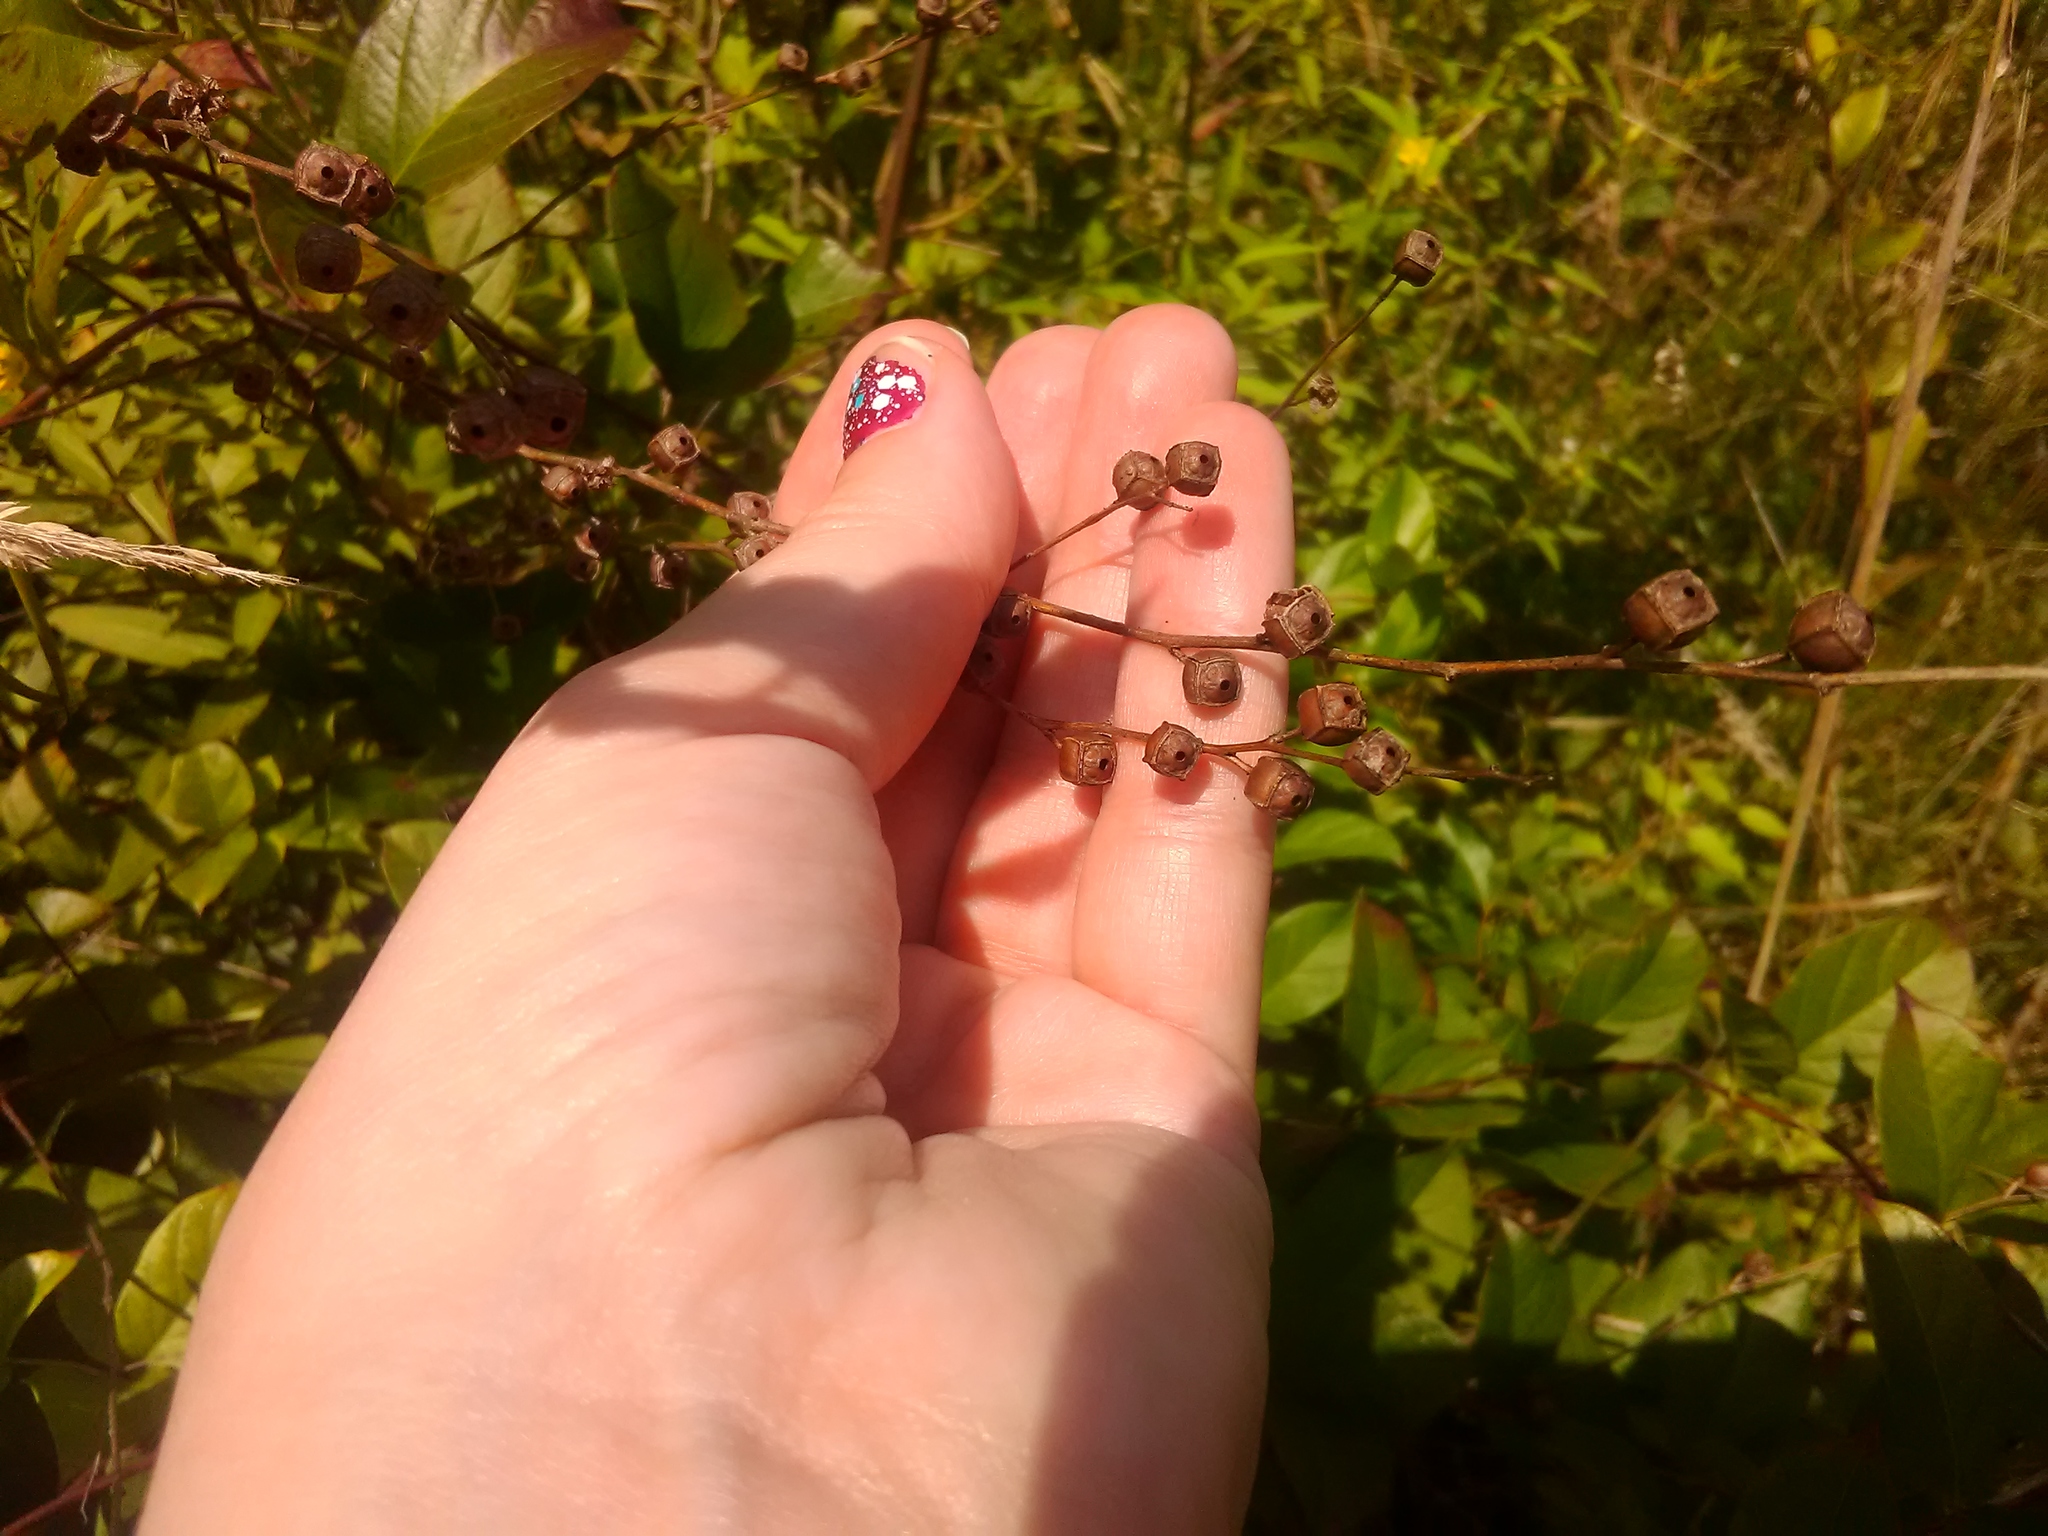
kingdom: Plantae
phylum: Tracheophyta
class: Magnoliopsida
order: Myrtales
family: Onagraceae
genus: Ludwigia
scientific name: Ludwigia alternifolia
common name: Rattlebox
